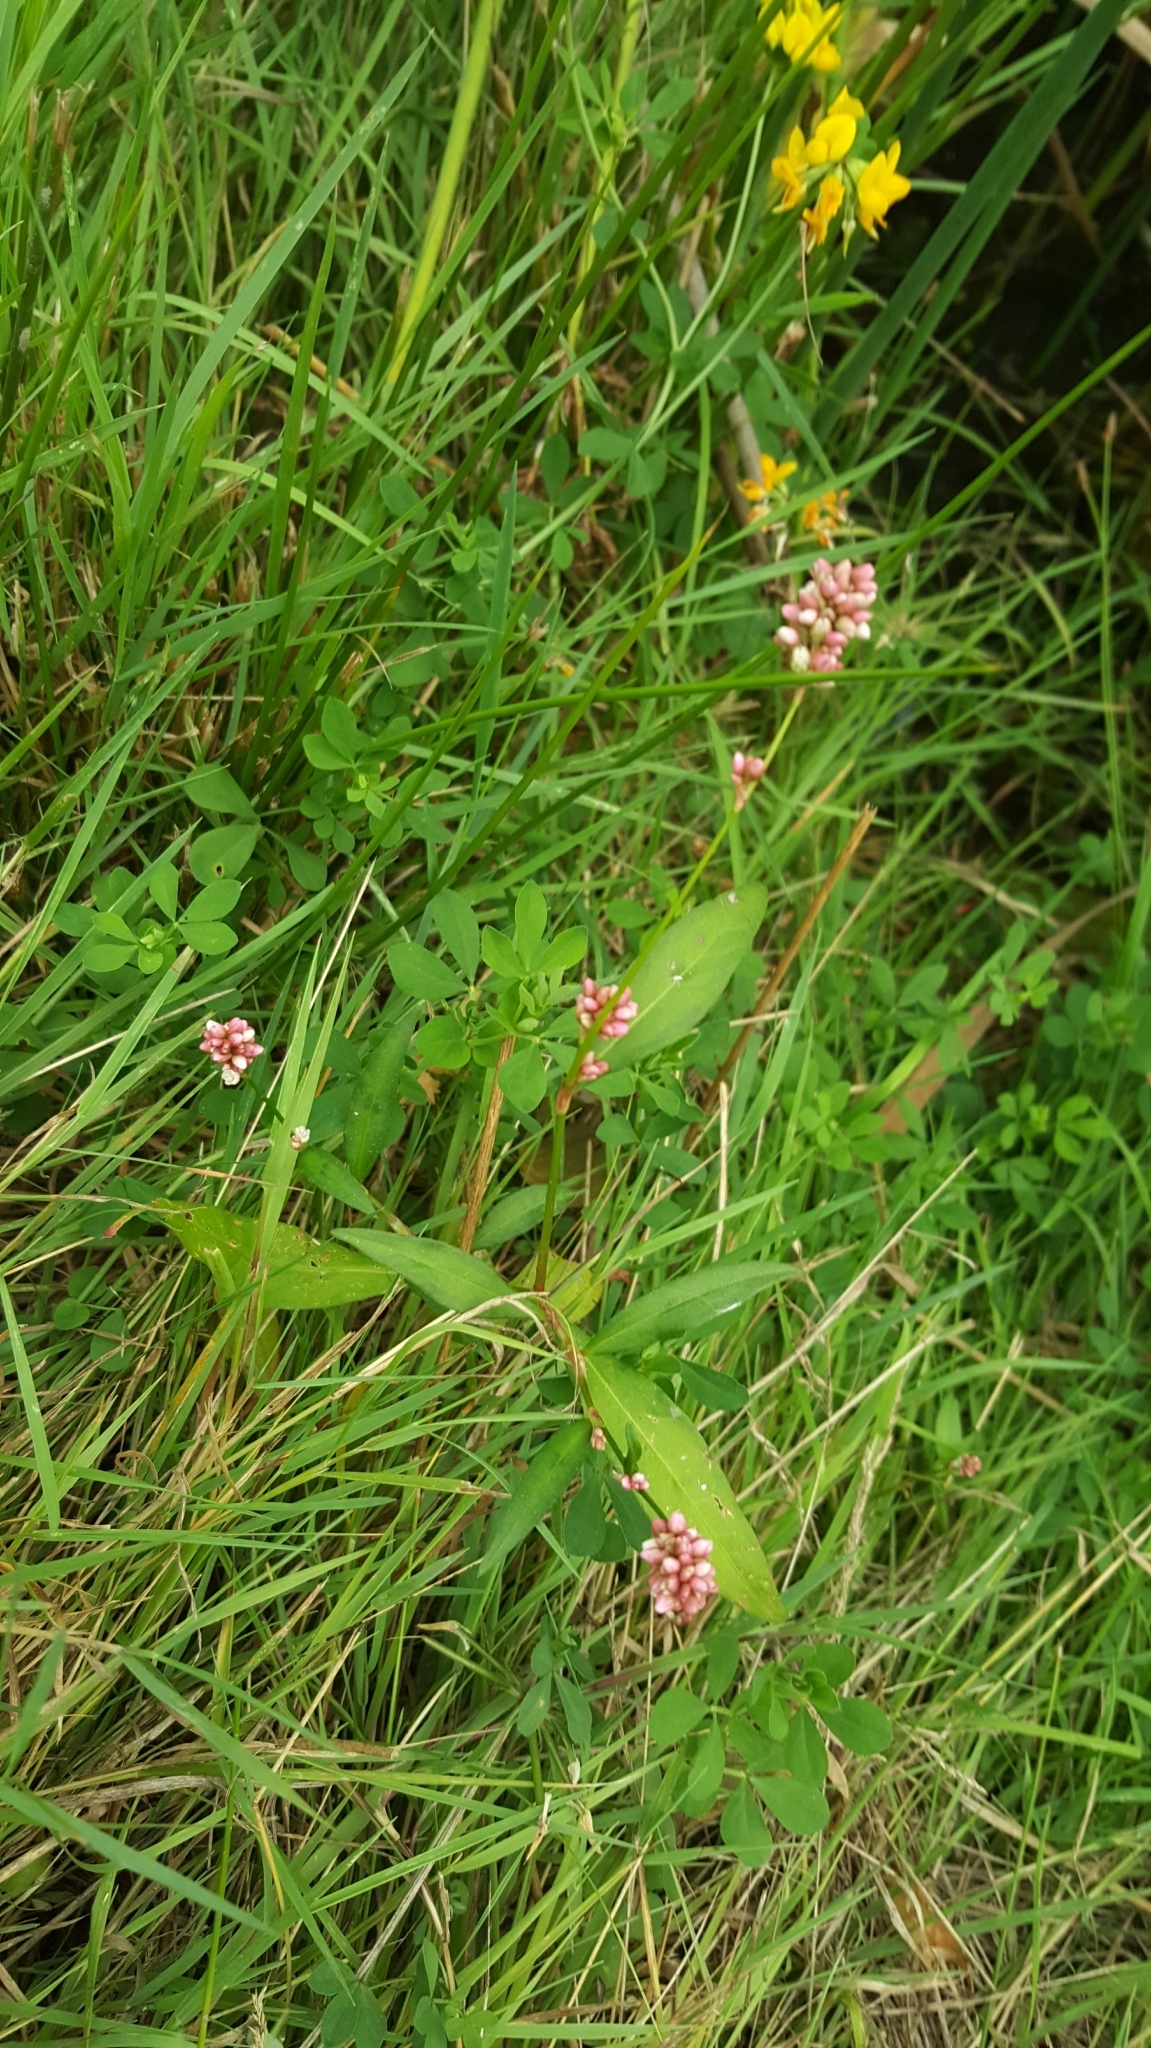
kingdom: Plantae
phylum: Tracheophyta
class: Magnoliopsida
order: Caryophyllales
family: Polygonaceae
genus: Persicaria
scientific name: Persicaria maculosa
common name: Redshank
